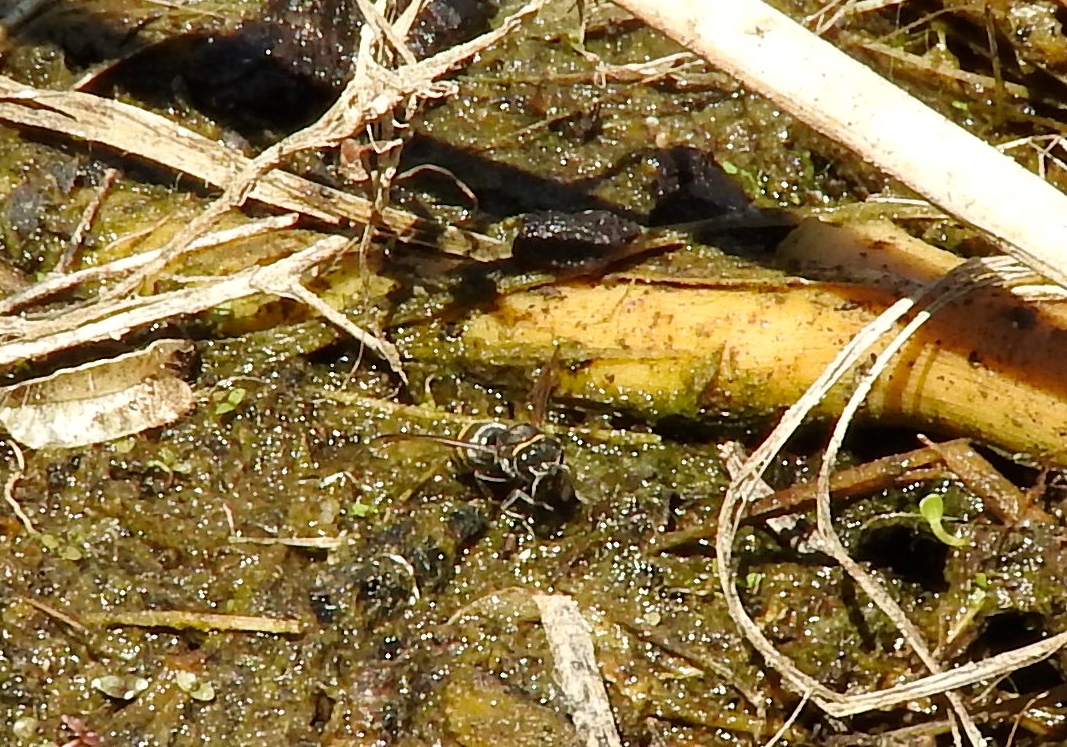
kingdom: Animalia
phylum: Arthropoda
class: Insecta
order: Hymenoptera
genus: Trypargilum
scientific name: Trypargilum
